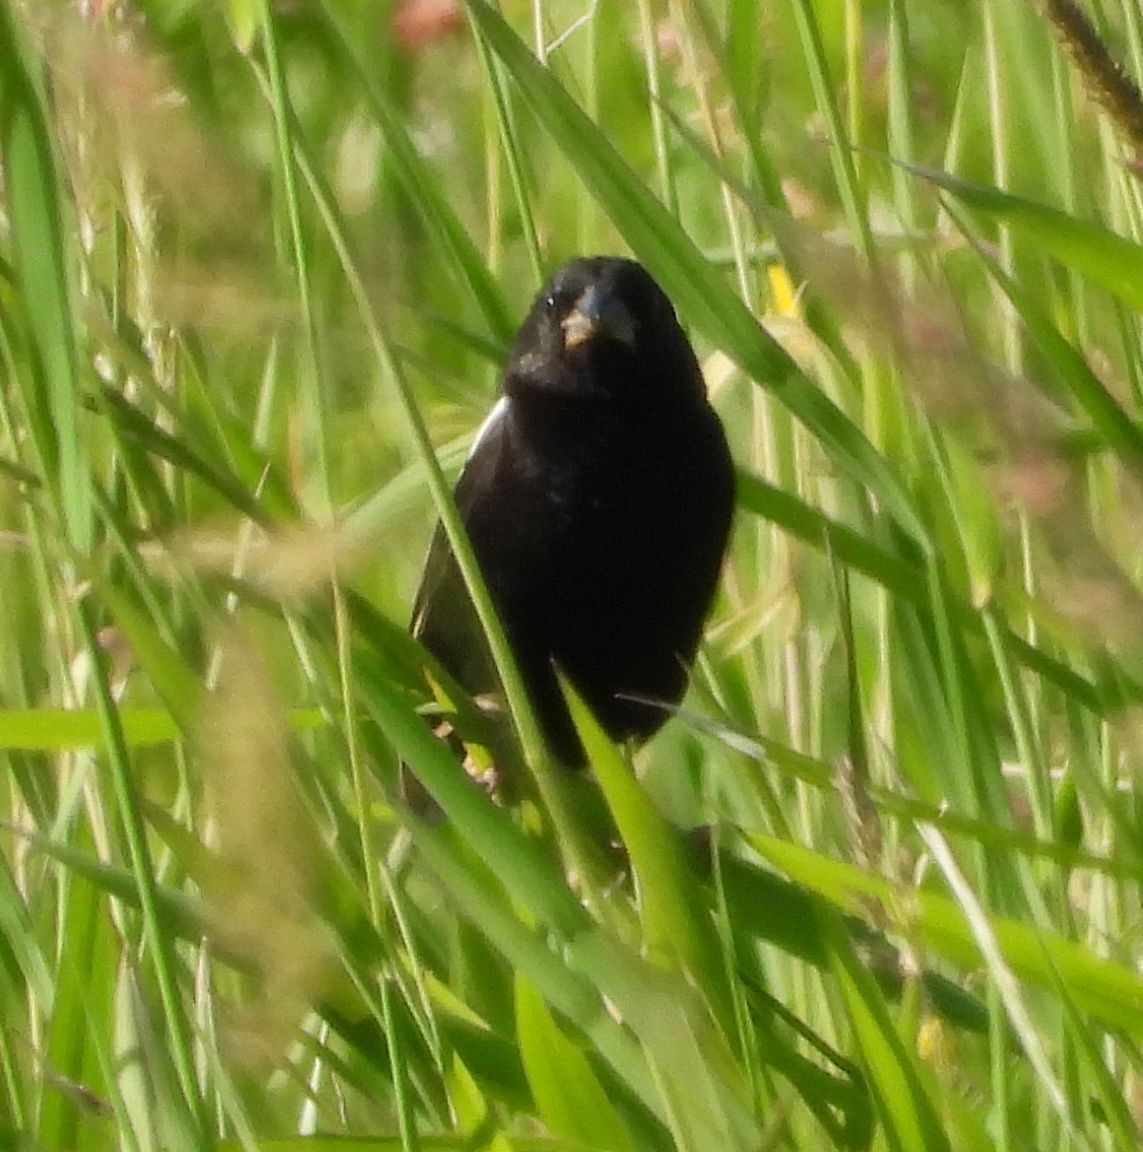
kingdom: Animalia
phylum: Chordata
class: Aves
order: Passeriformes
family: Icteridae
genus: Dolichonyx
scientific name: Dolichonyx oryzivorus
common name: Bobolink
